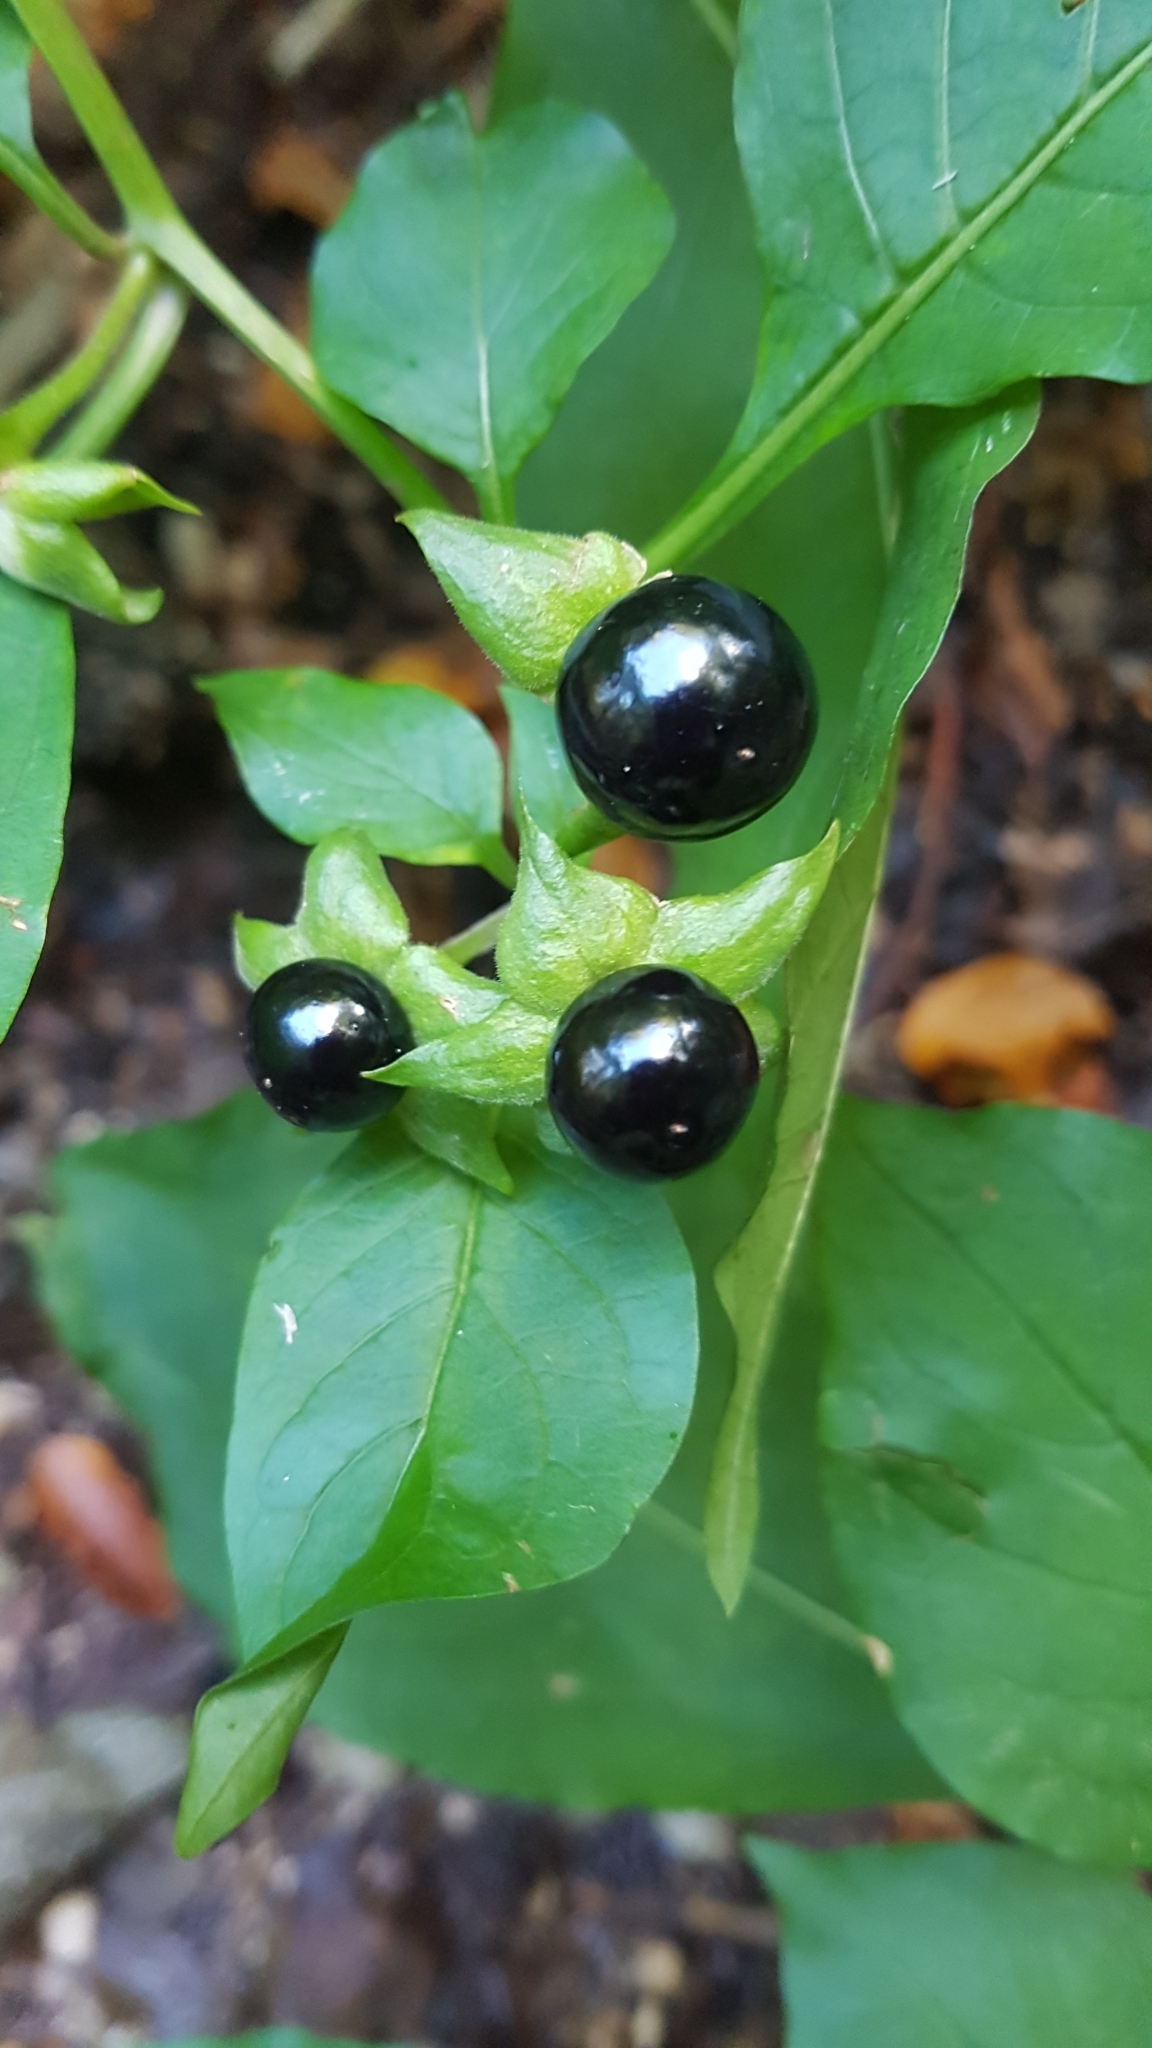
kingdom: Plantae
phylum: Tracheophyta
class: Magnoliopsida
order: Solanales
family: Solanaceae
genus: Atropa
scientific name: Atropa belladonna
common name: Deadly nightshade
